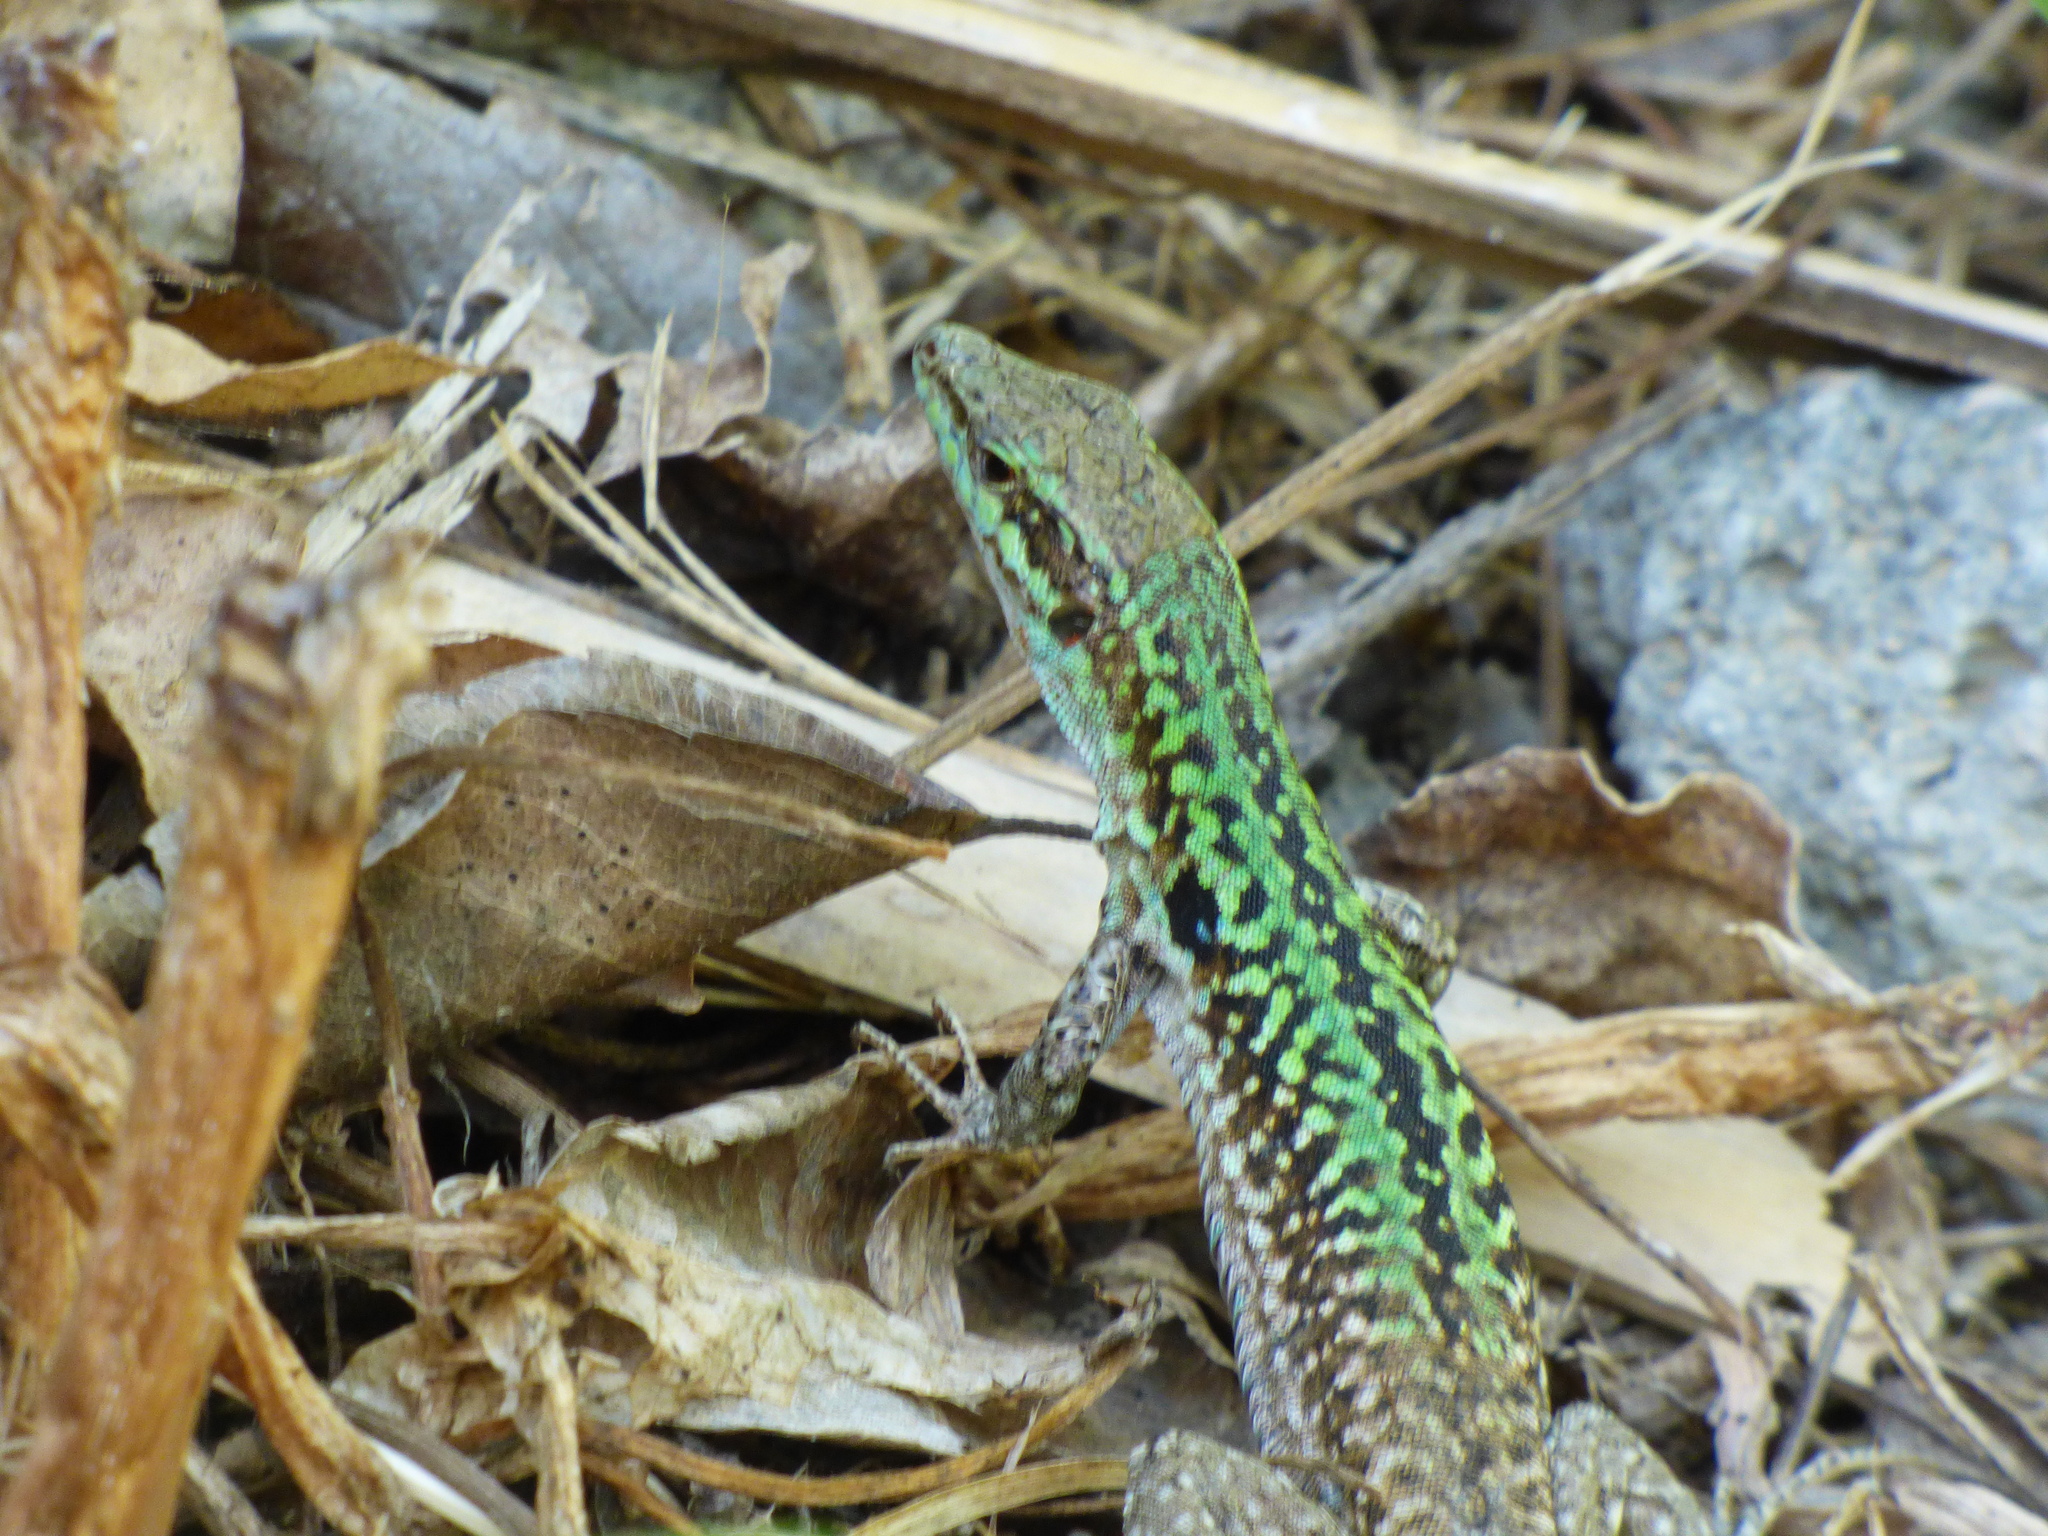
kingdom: Animalia
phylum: Chordata
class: Squamata
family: Lacertidae
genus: Podarcis
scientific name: Podarcis siculus
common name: Italian wall lizard
